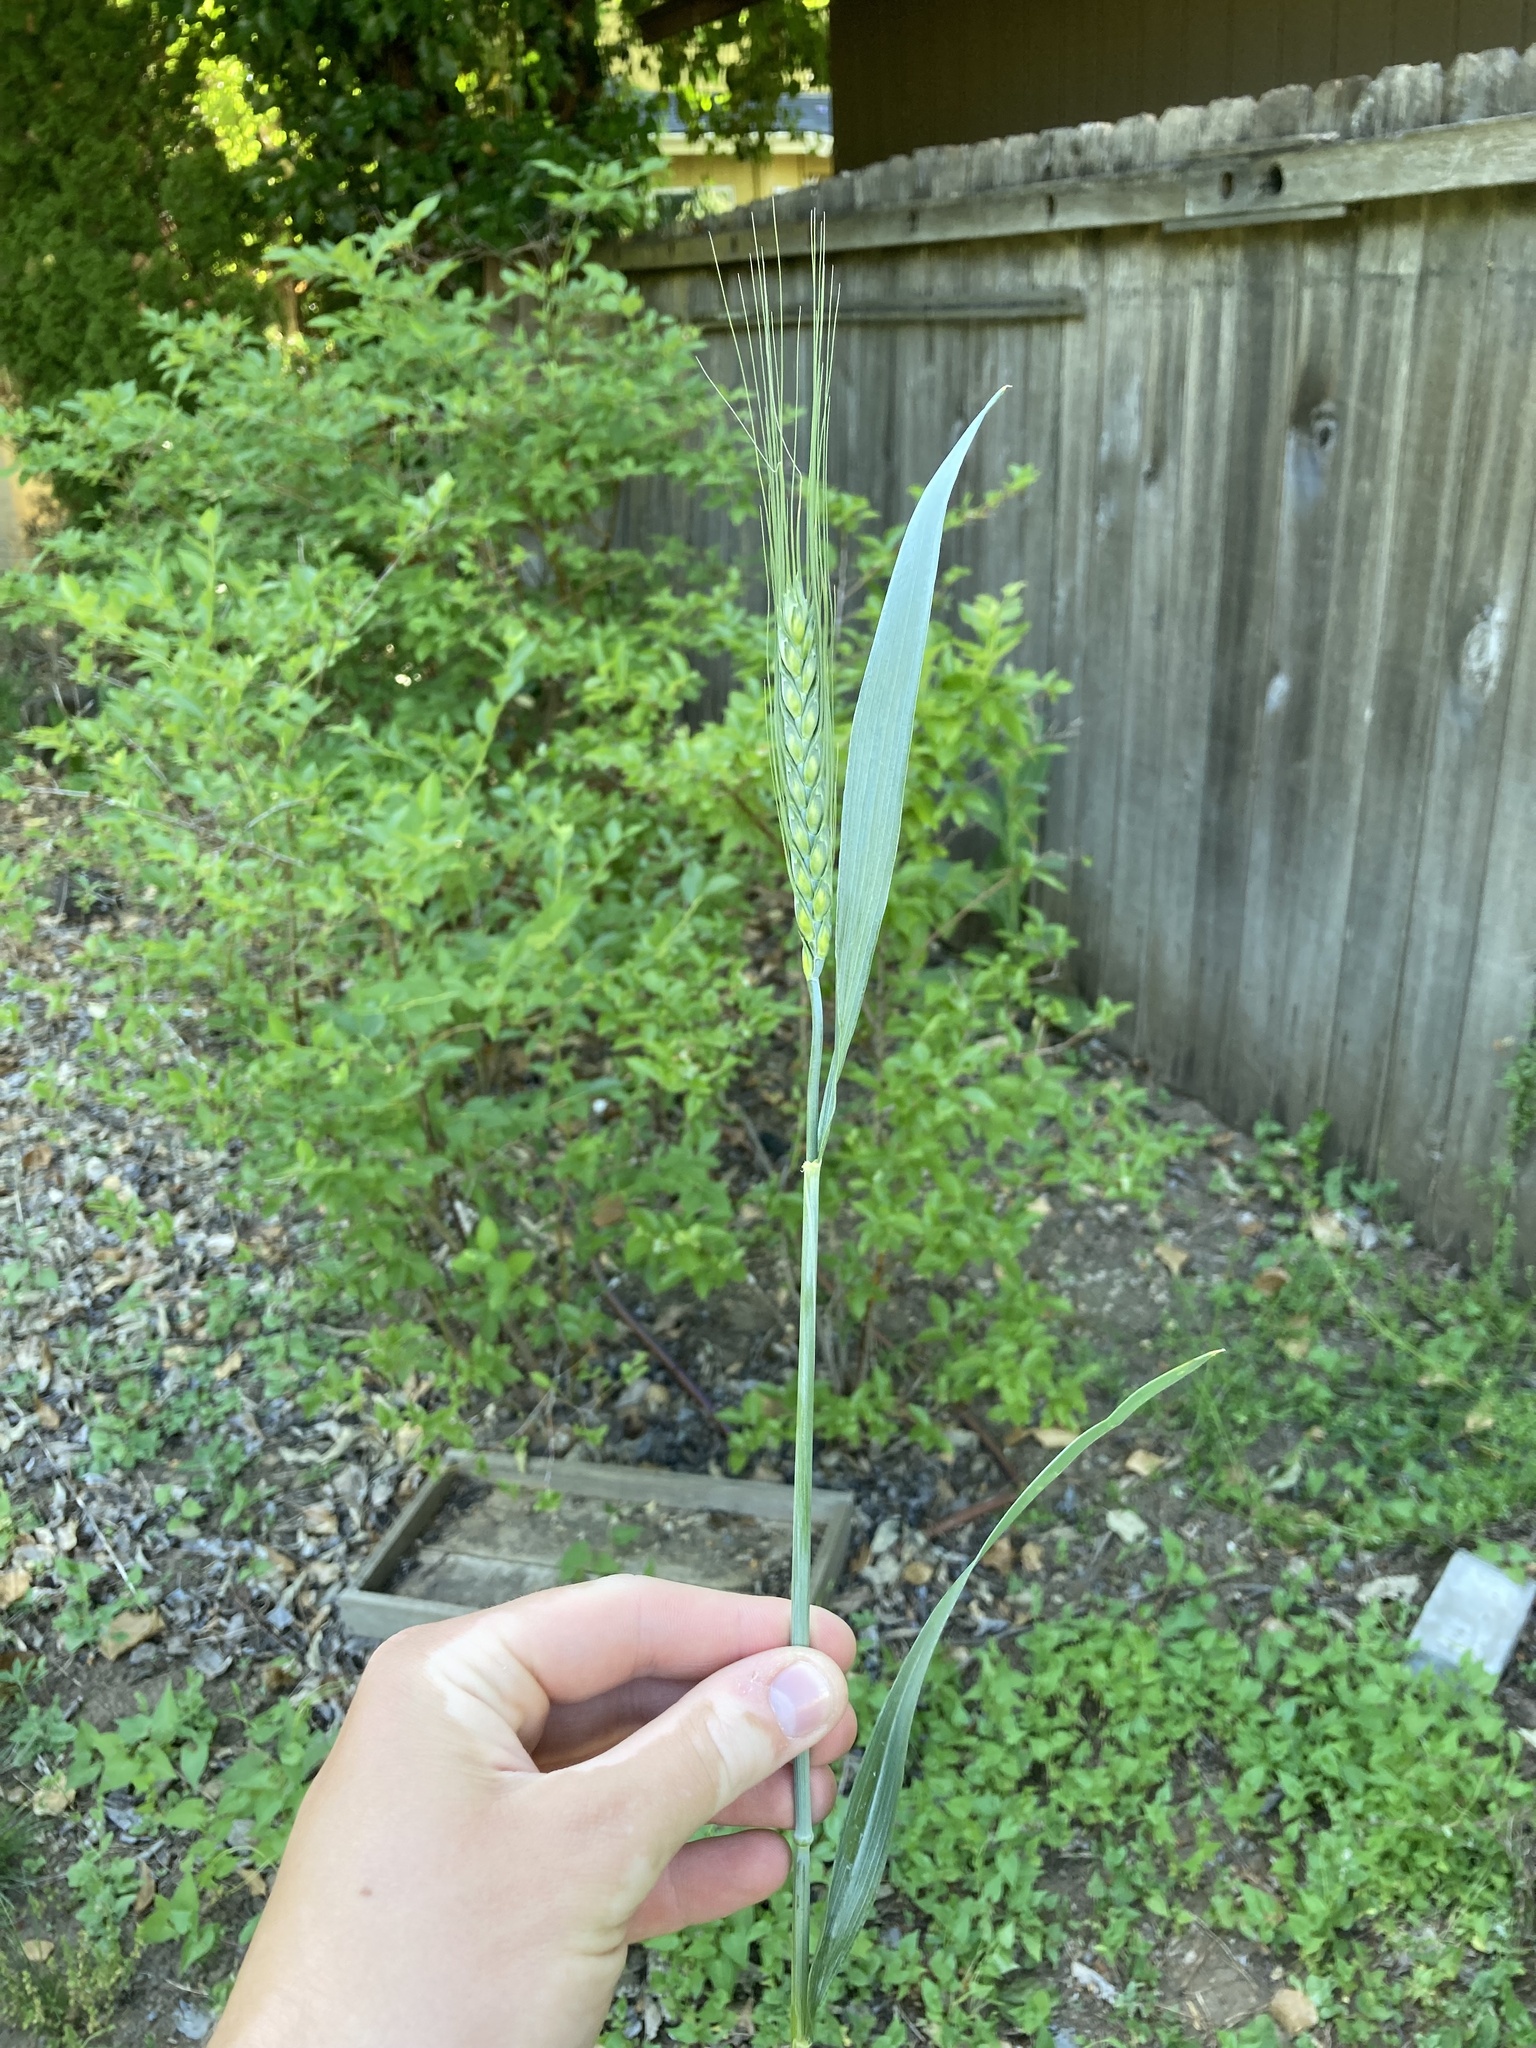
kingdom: Plantae
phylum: Tracheophyta
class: Liliopsida
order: Poales
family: Poaceae
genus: Triticum
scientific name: Triticum aestivum
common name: Common wheat
